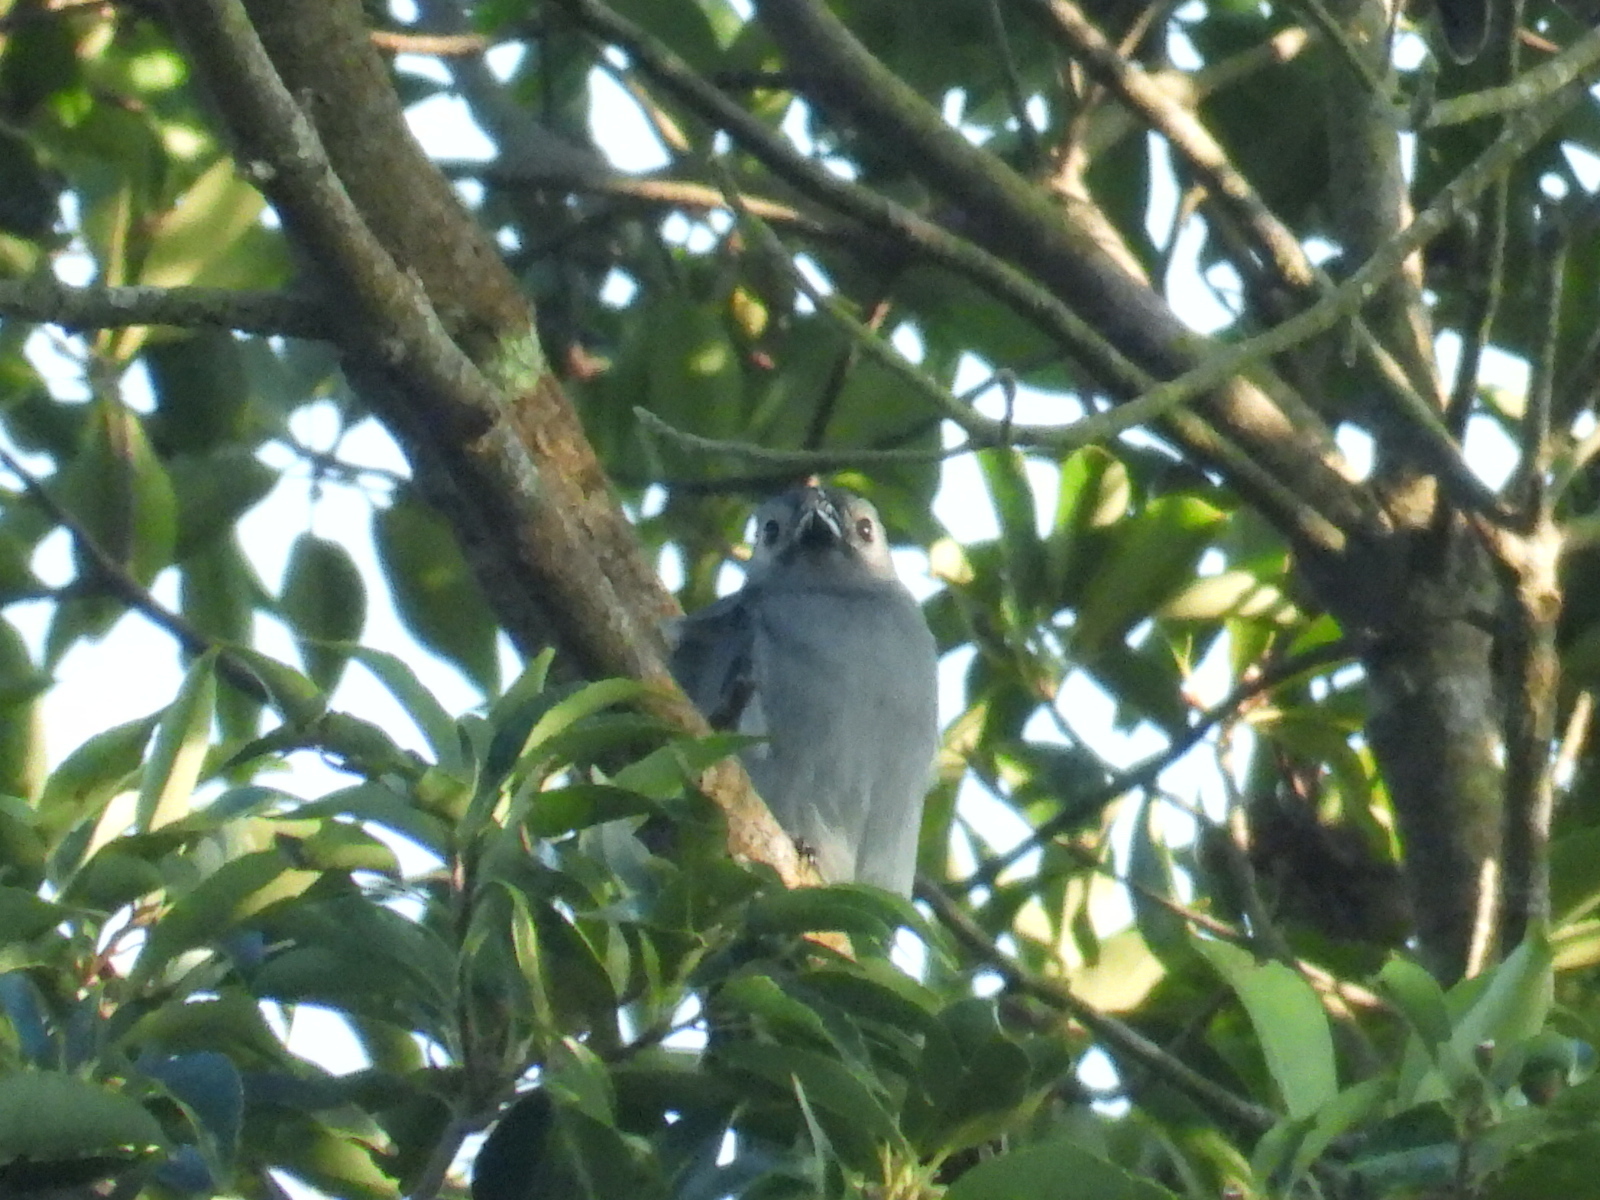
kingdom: Animalia
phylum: Chordata
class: Aves
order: Passeriformes
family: Dicruridae
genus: Dicrurus
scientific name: Dicrurus leucophaeus
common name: Ashy drongo
